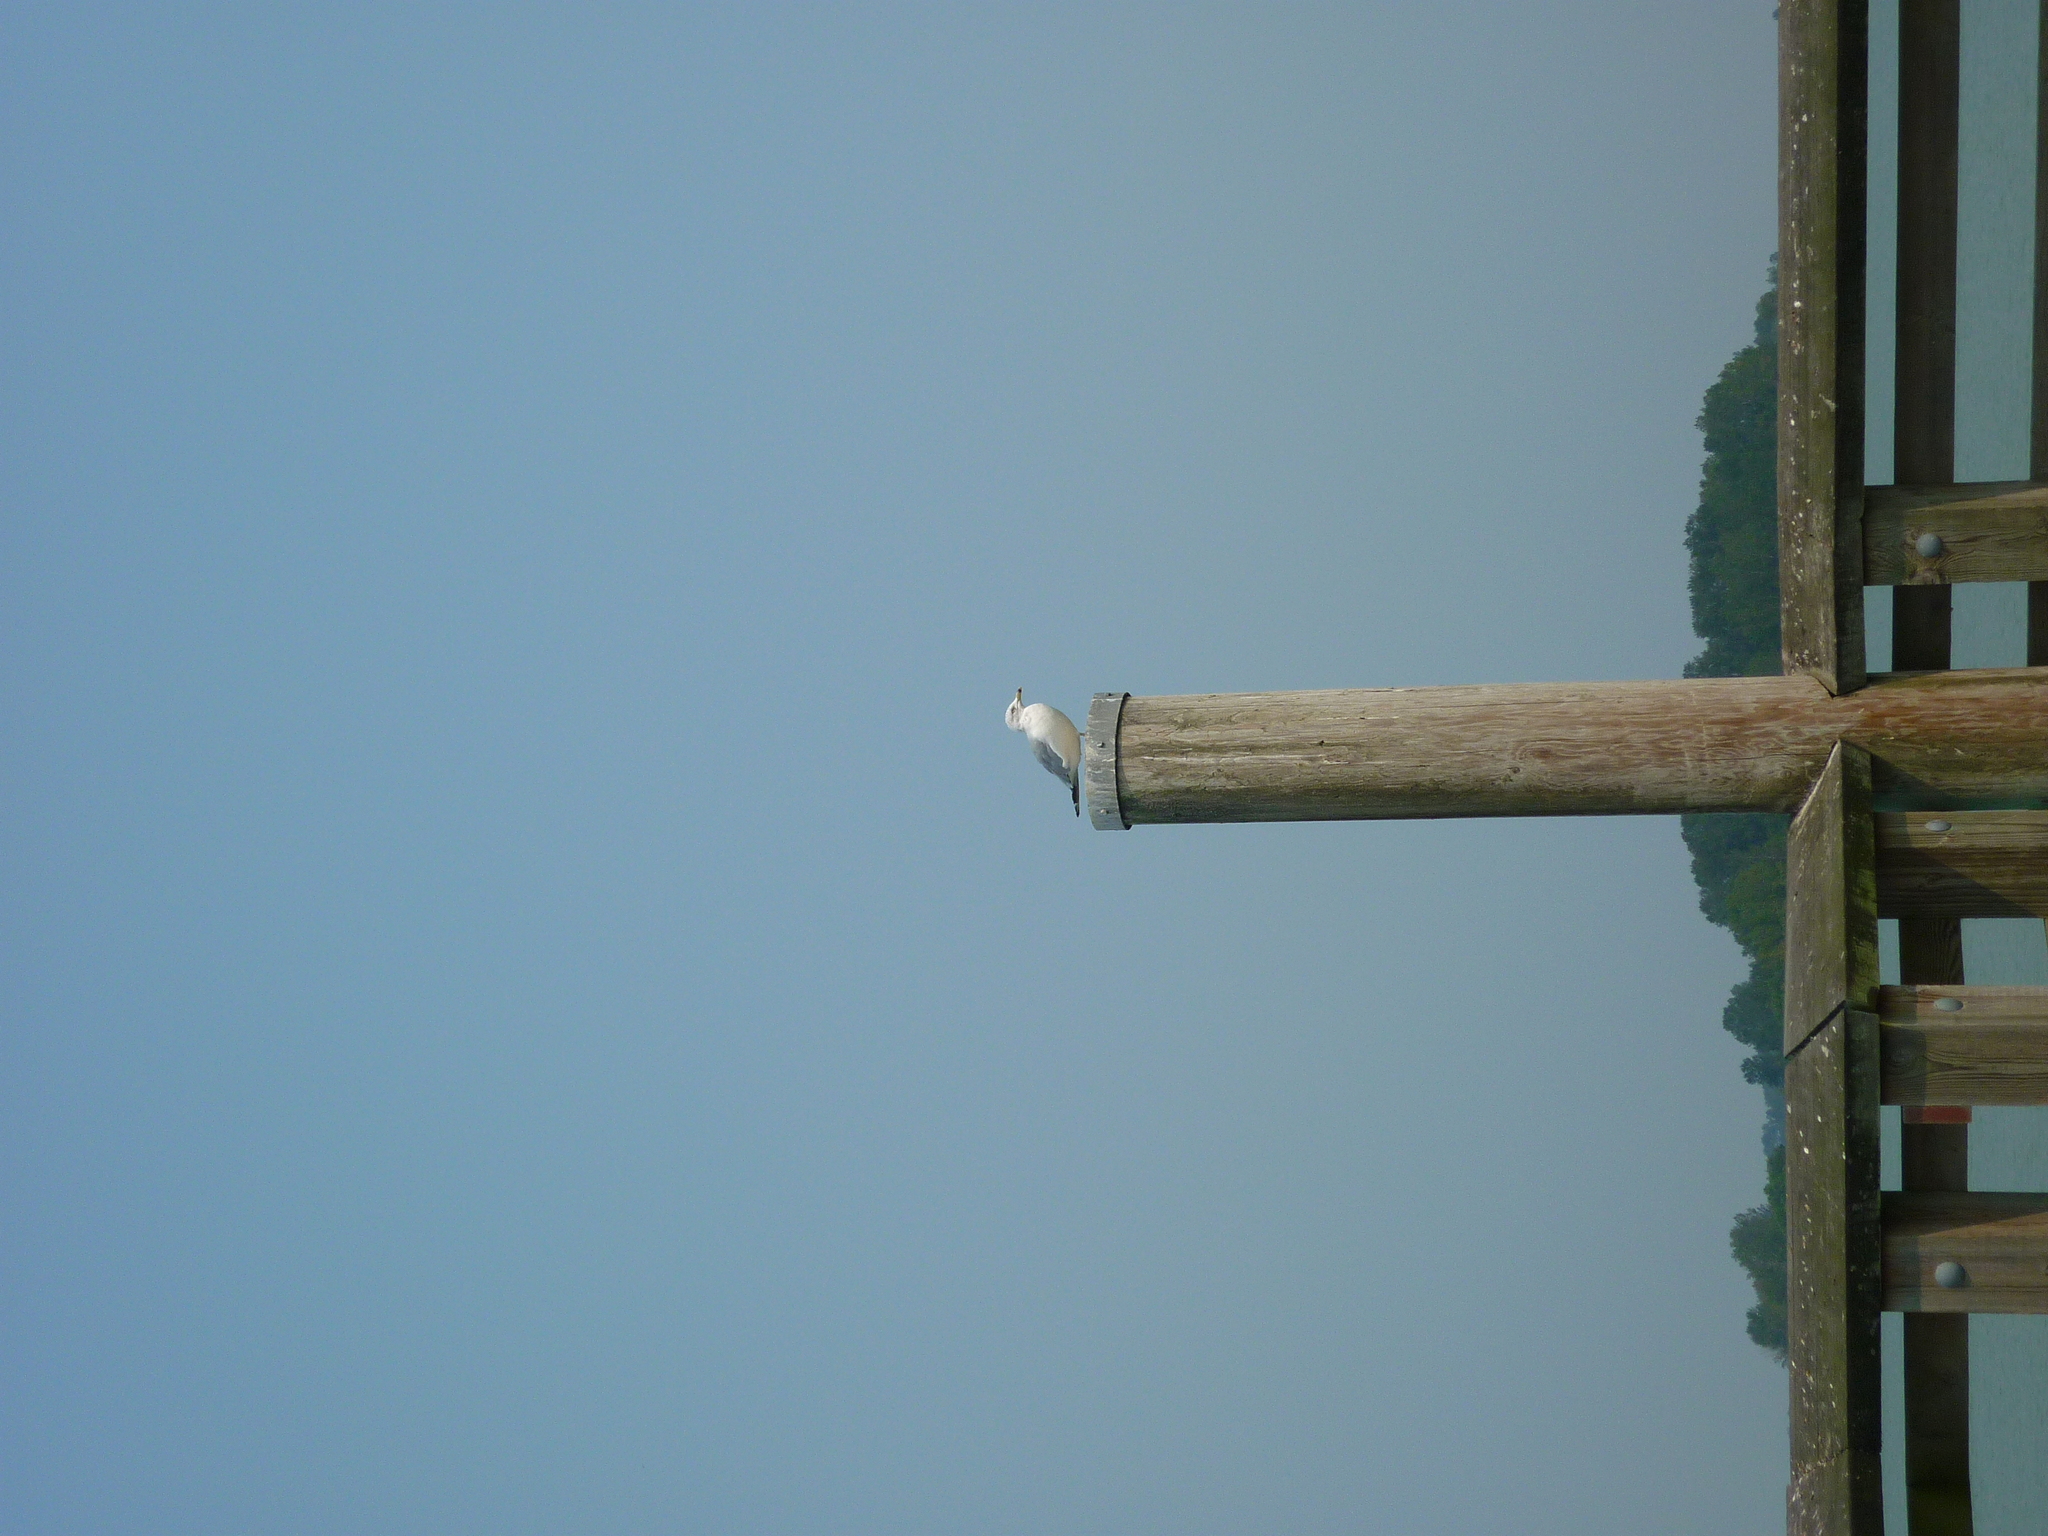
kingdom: Animalia
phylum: Chordata
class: Aves
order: Charadriiformes
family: Laridae
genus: Larus
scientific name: Larus delawarensis
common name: Ring-billed gull
